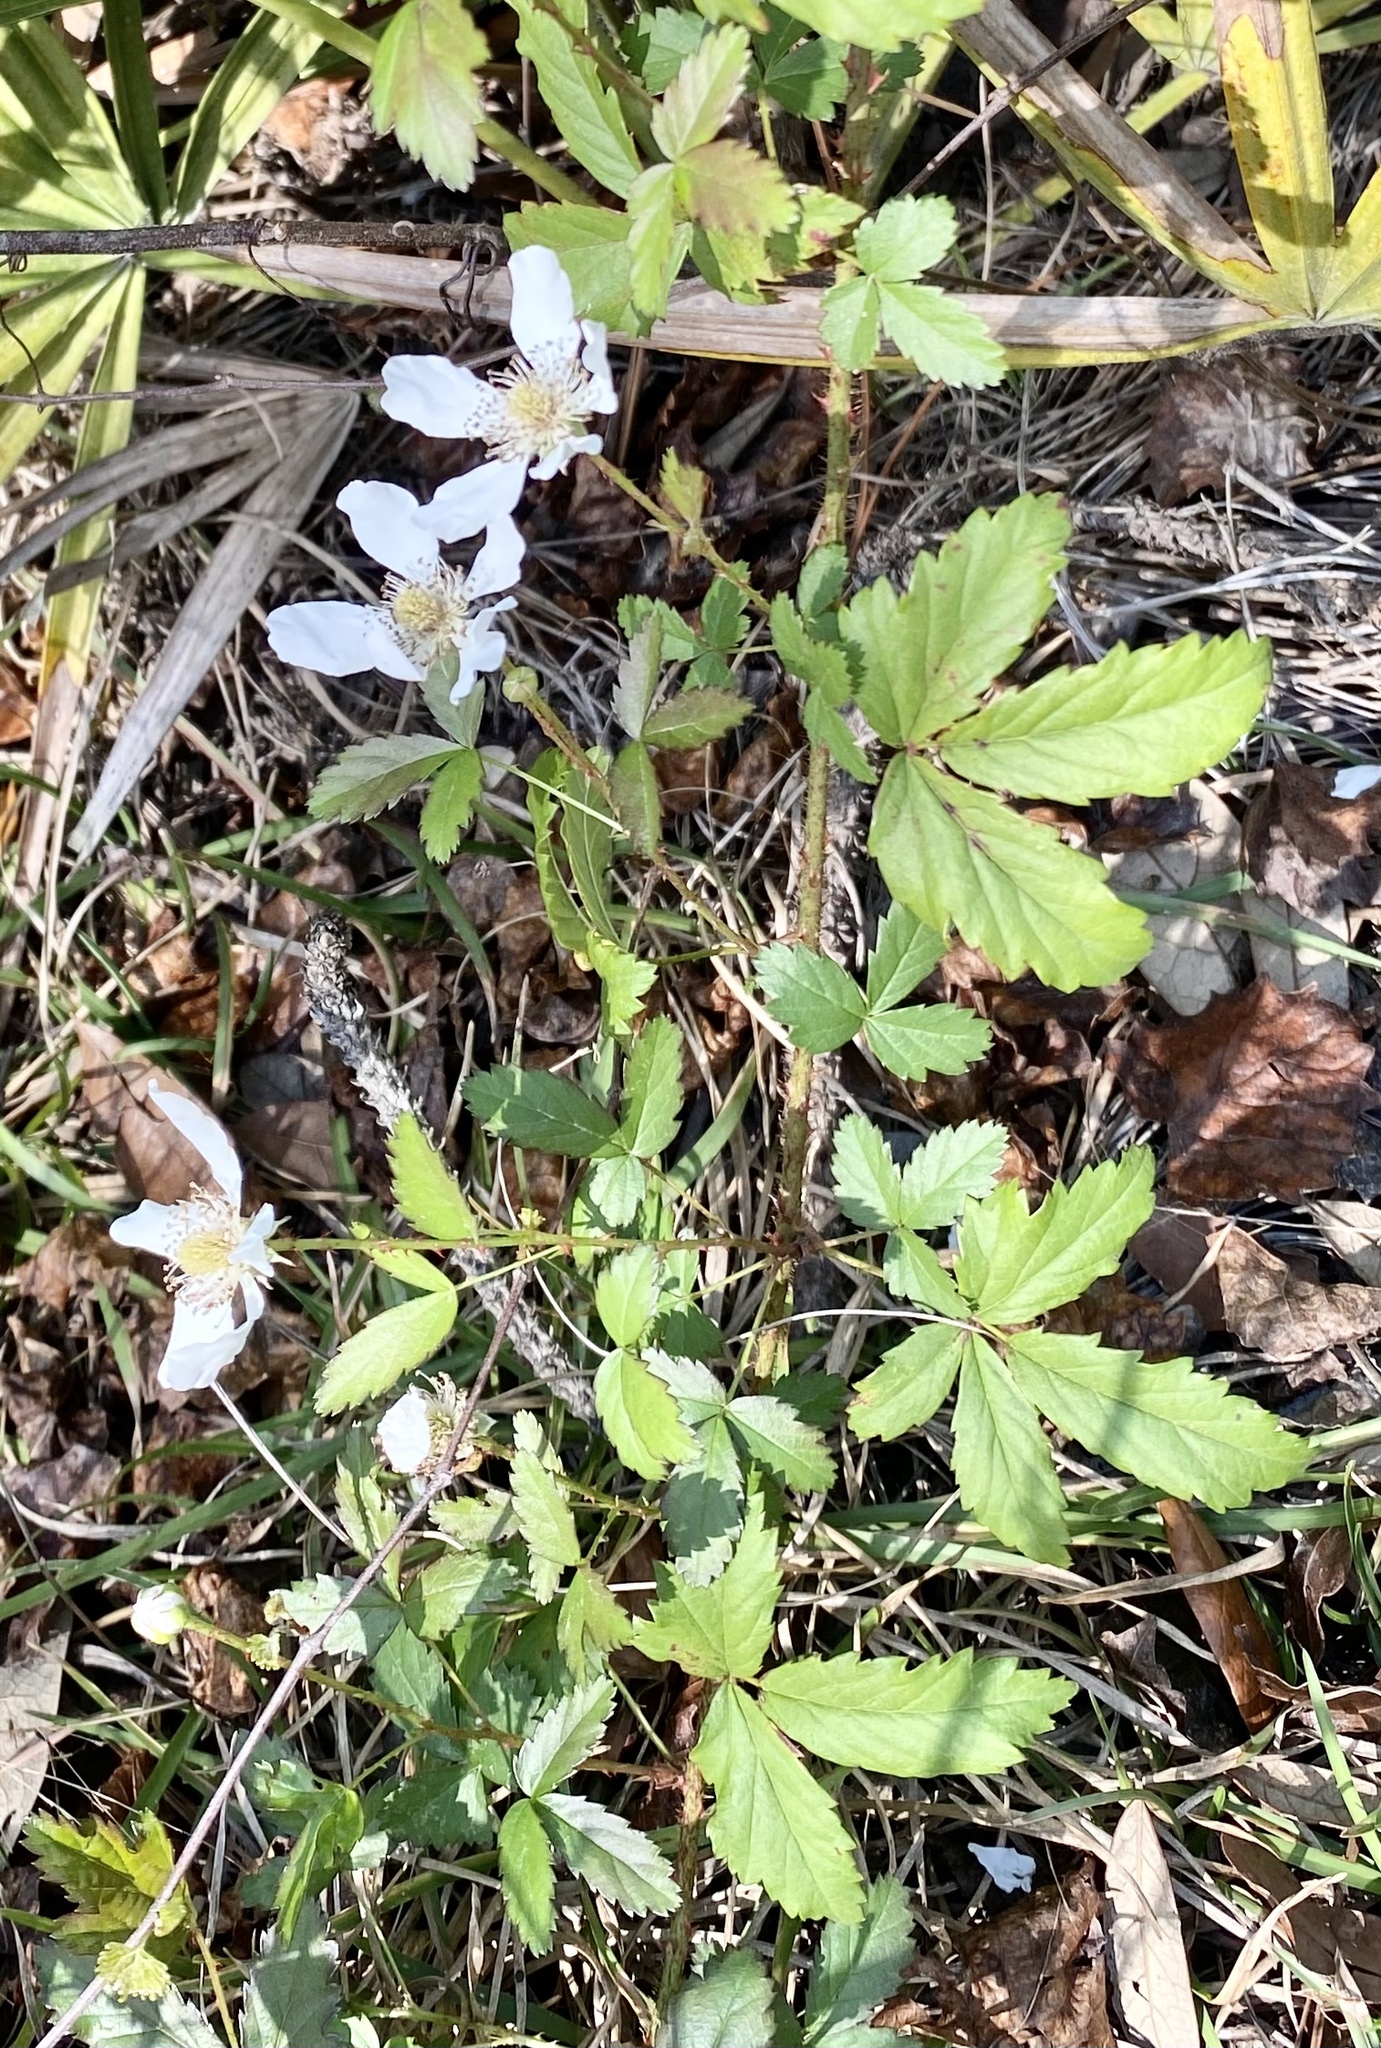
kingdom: Plantae
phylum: Tracheophyta
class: Magnoliopsida
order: Rosales
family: Rosaceae
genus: Rubus
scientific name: Rubus trivialis
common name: Southern dewberry
